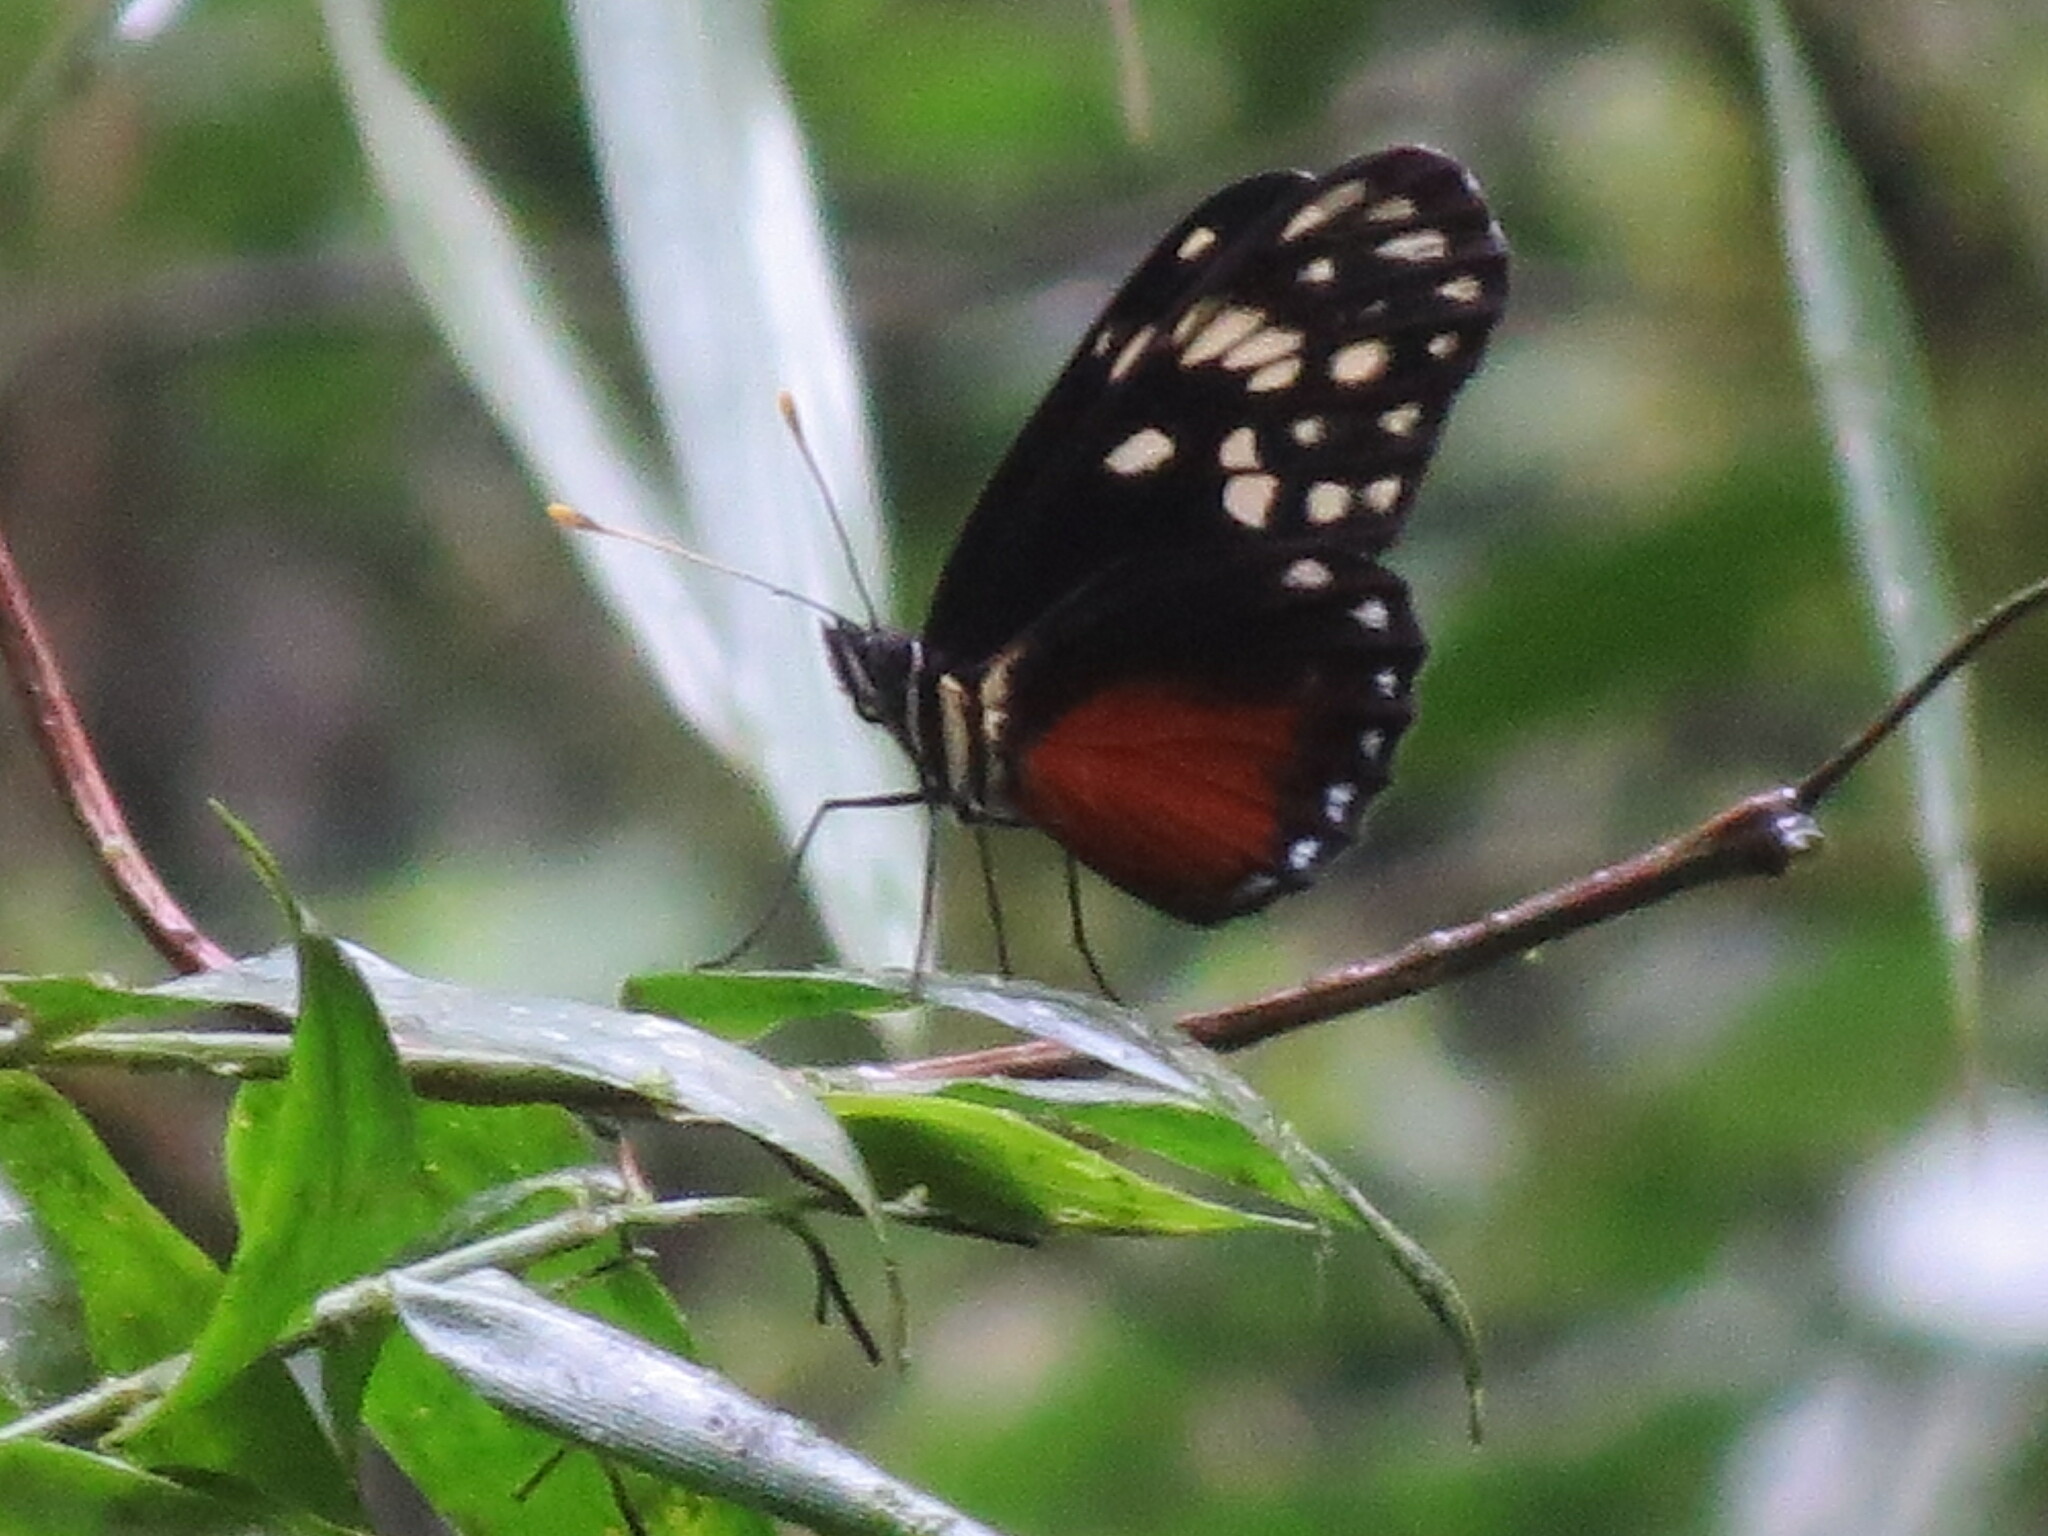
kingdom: Animalia
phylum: Arthropoda
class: Insecta
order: Lepidoptera
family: Nymphalidae
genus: Eresia
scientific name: Eresia sticta
